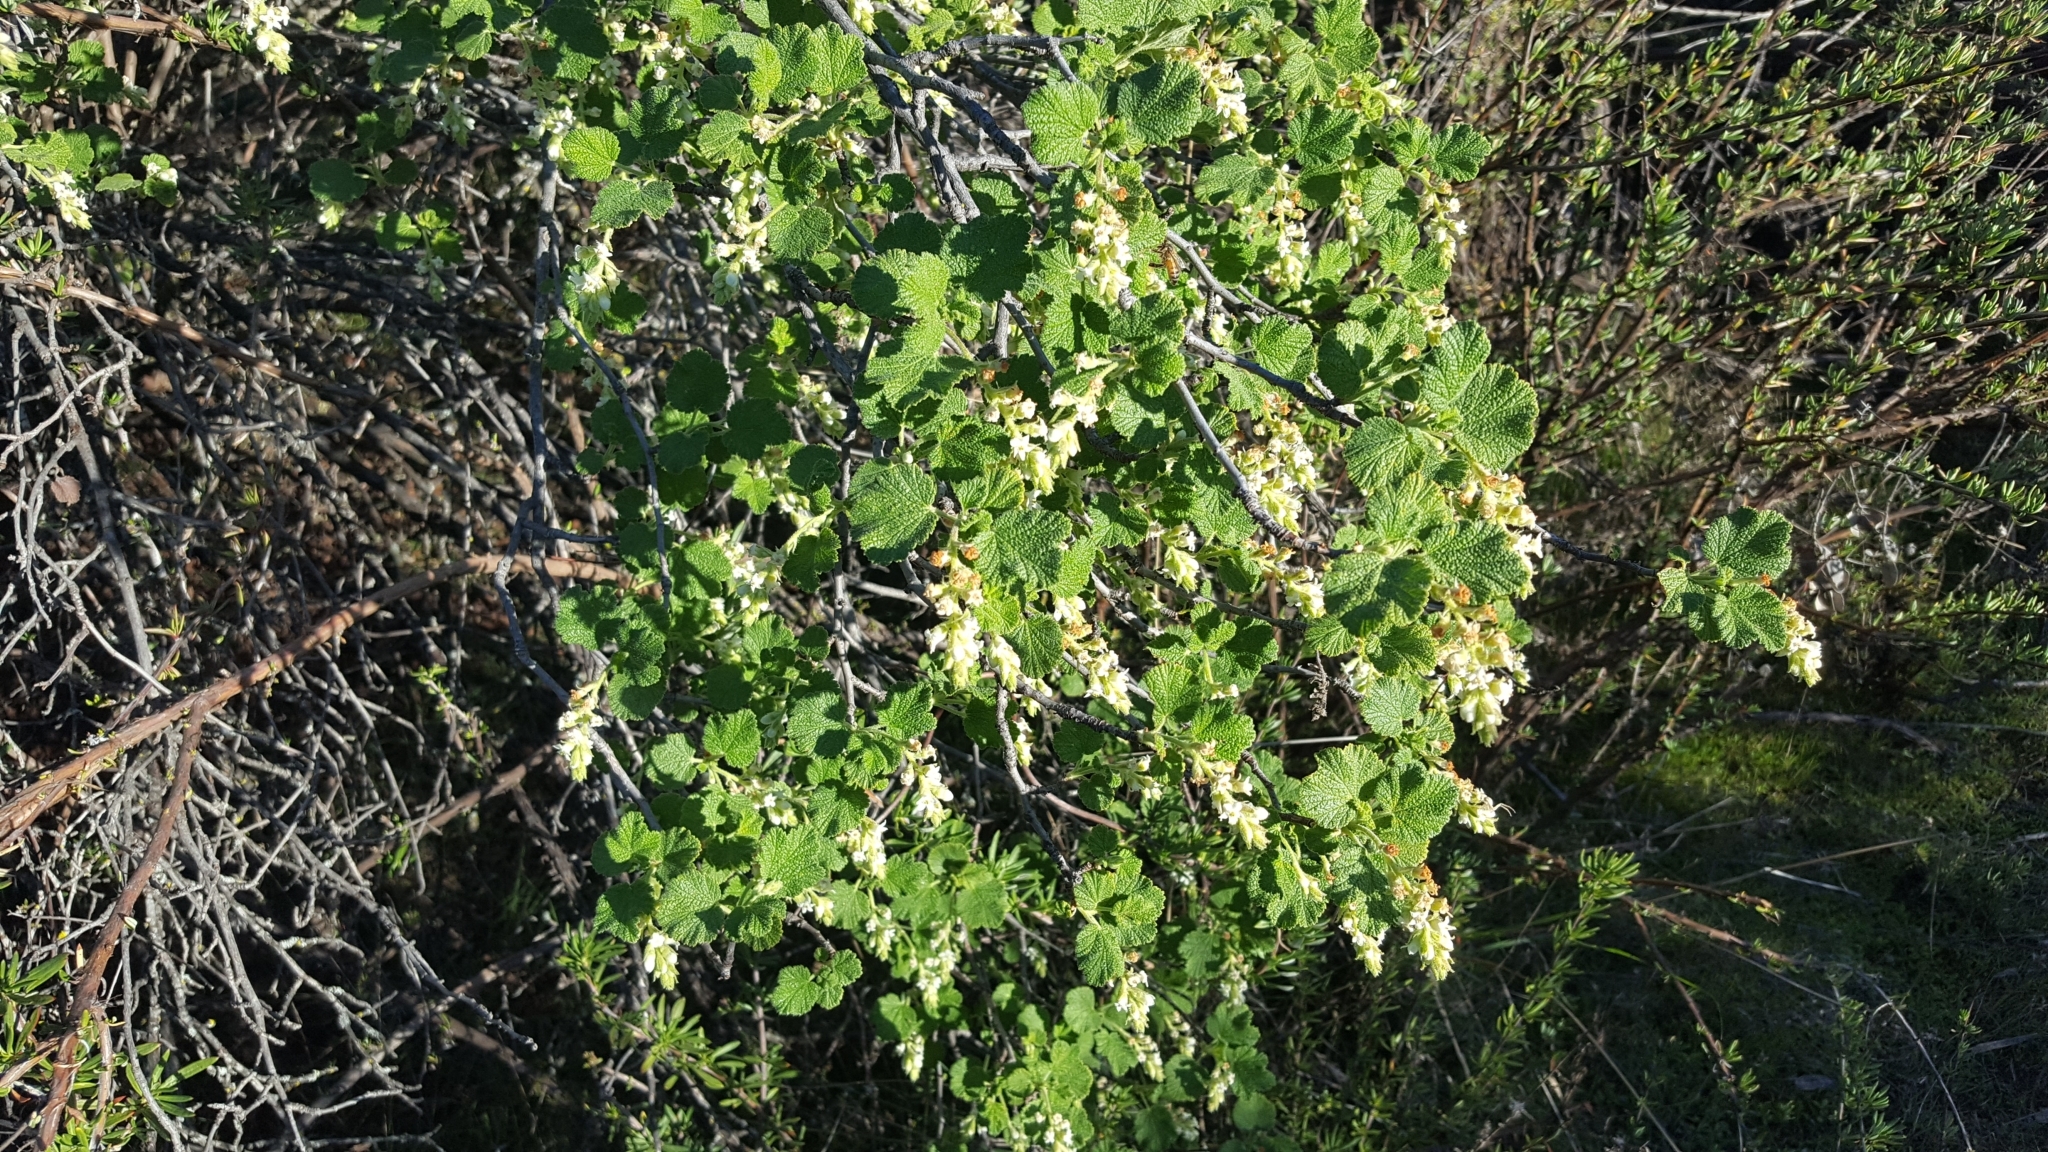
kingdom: Plantae
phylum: Tracheophyta
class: Magnoliopsida
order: Saxifragales
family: Grossulariaceae
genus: Ribes
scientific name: Ribes indecorum
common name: White-flower currant
